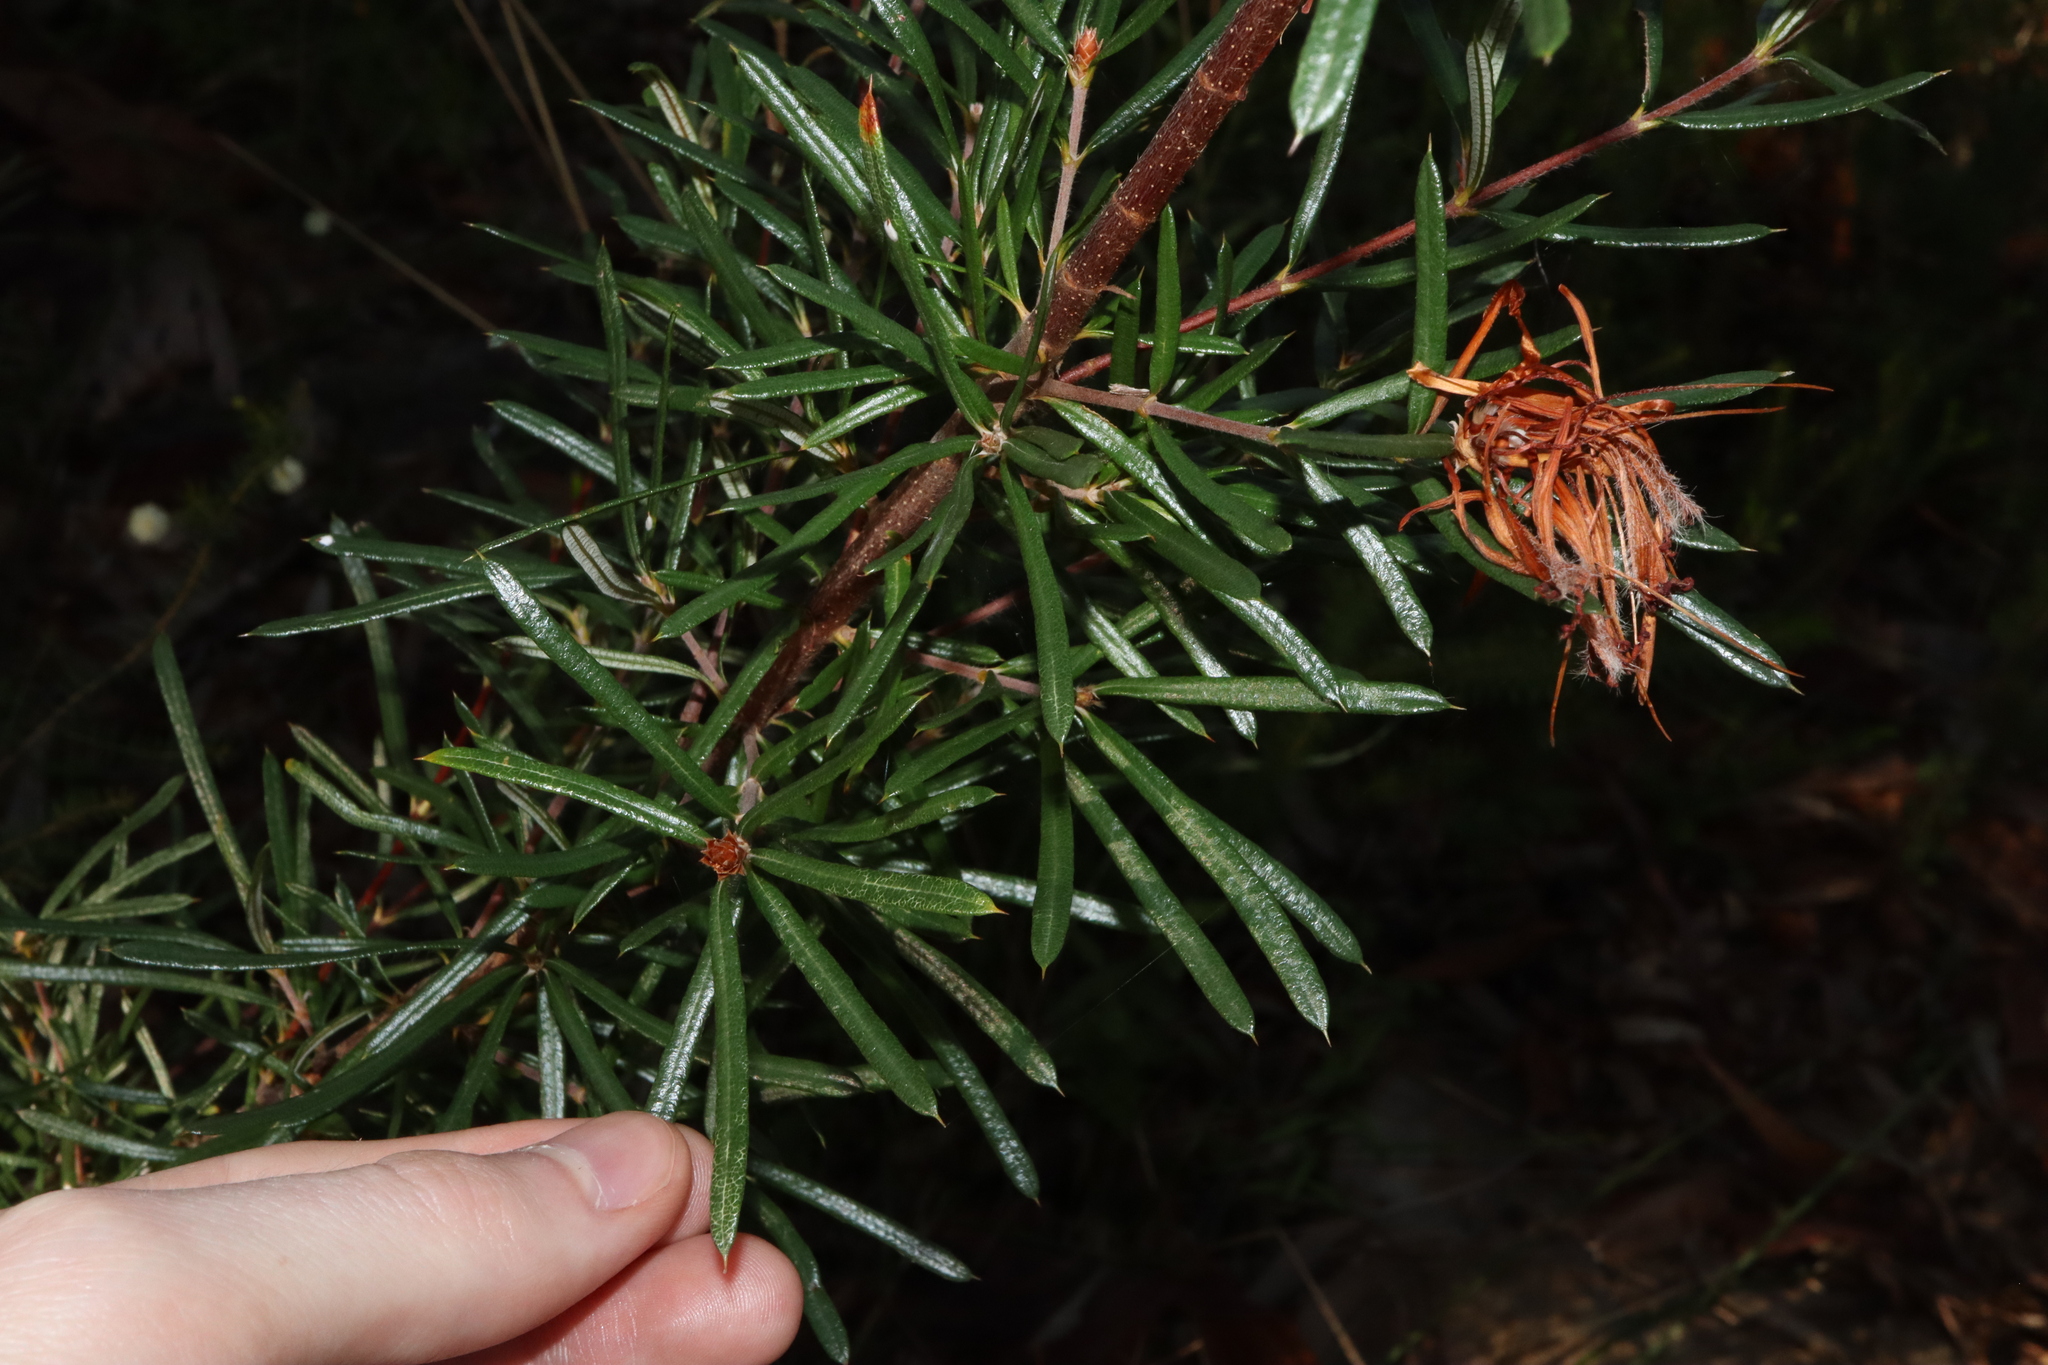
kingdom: Plantae
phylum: Tracheophyta
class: Magnoliopsida
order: Proteales
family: Proteaceae
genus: Lambertia
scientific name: Lambertia formosa
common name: Mountain-devil
